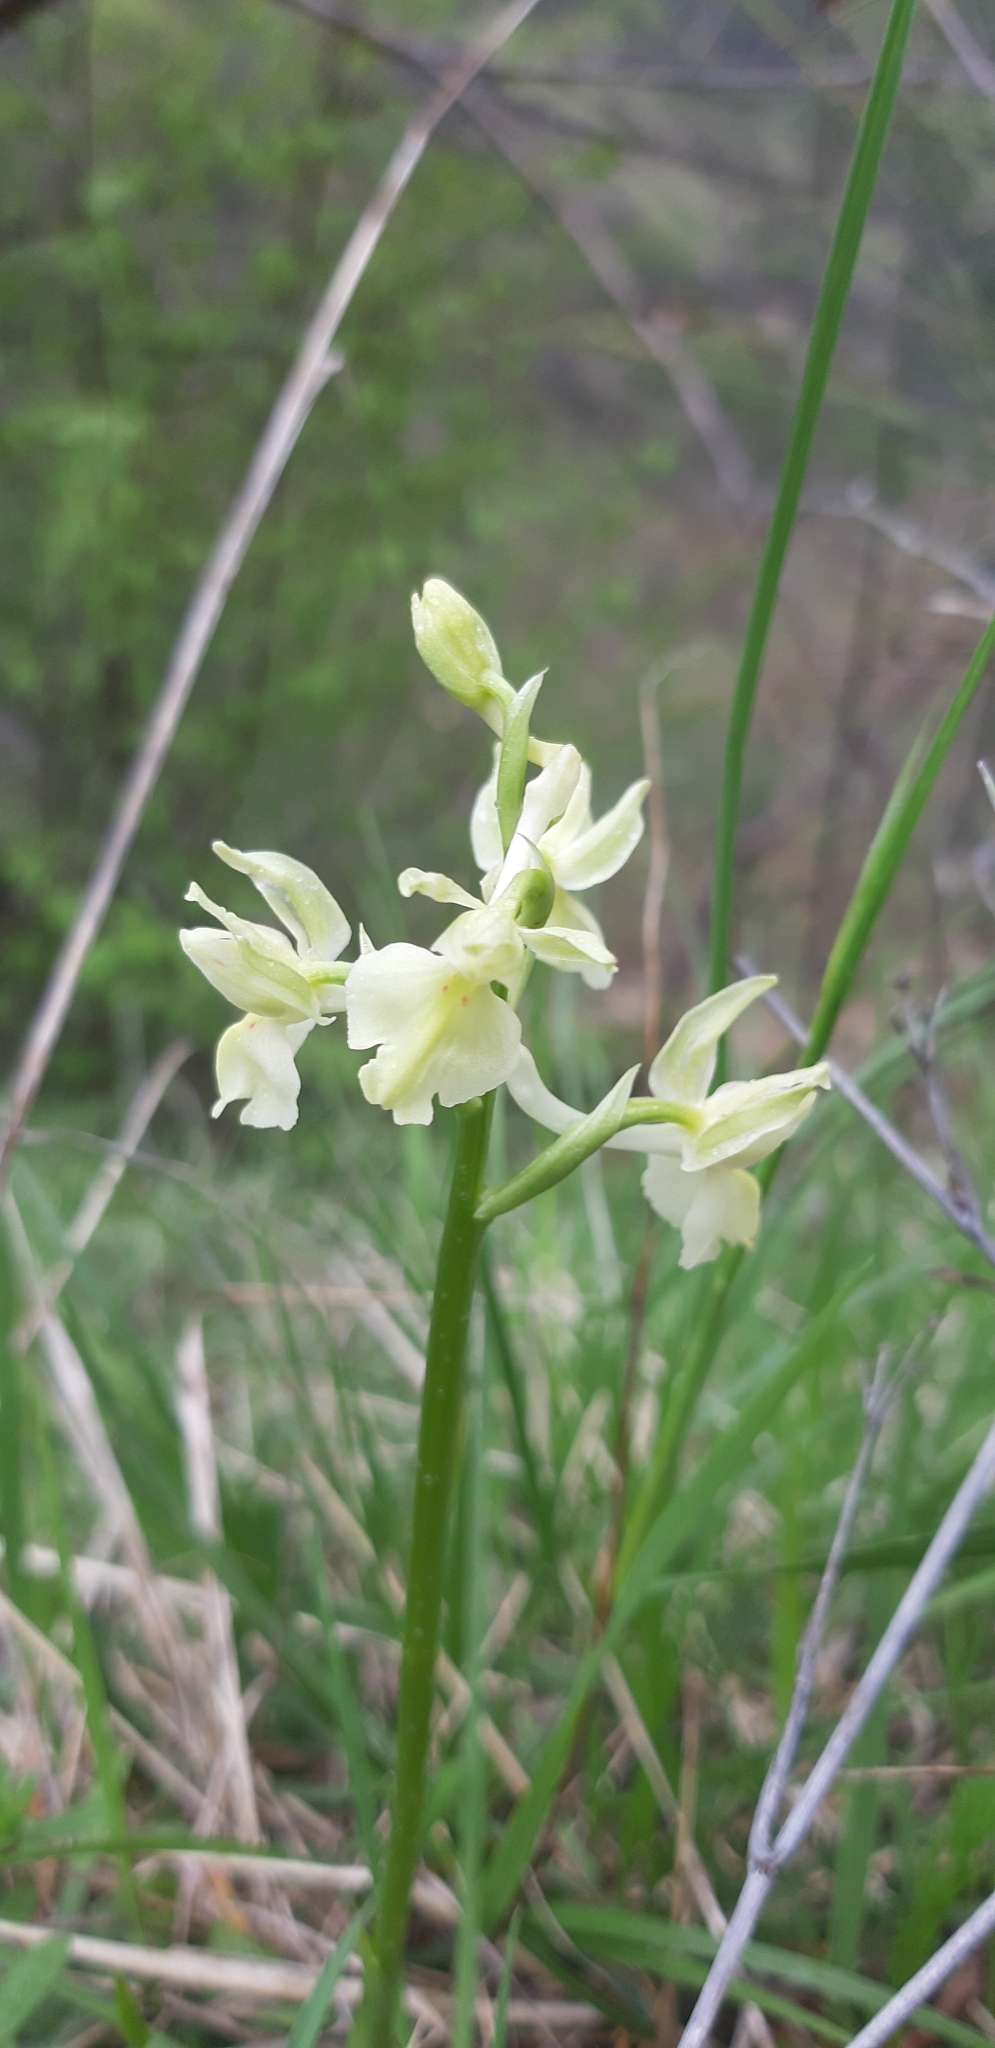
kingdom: Plantae
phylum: Tracheophyta
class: Liliopsida
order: Asparagales
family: Orchidaceae
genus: Orchis
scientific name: Orchis provincialis
